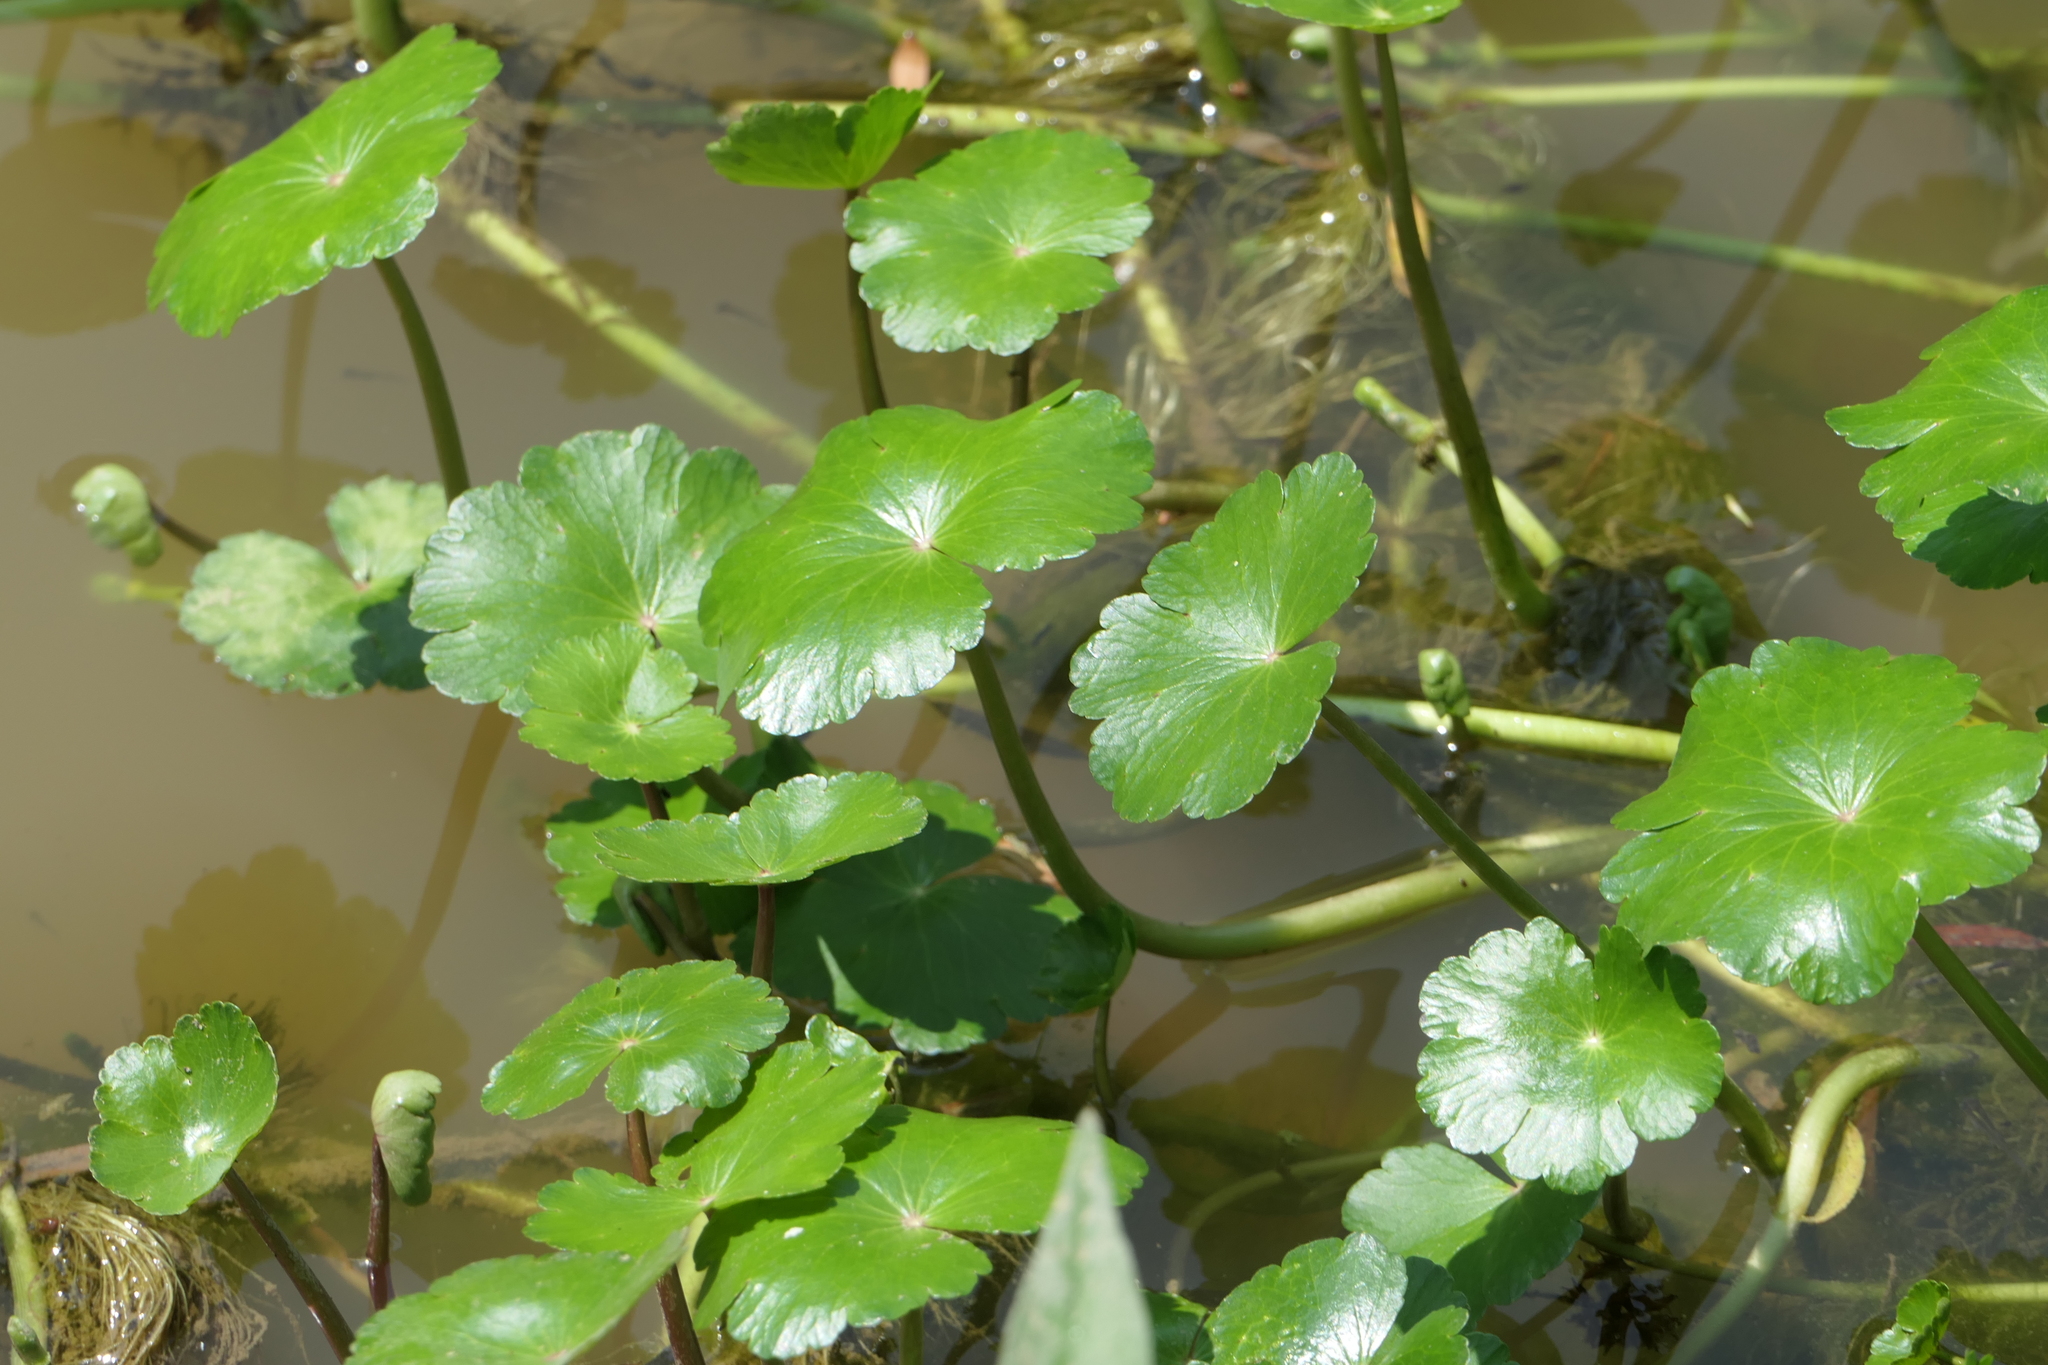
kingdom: Plantae
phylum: Tracheophyta
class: Magnoliopsida
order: Apiales
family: Araliaceae
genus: Hydrocotyle
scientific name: Hydrocotyle ranunculoides
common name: Floating pennywort
